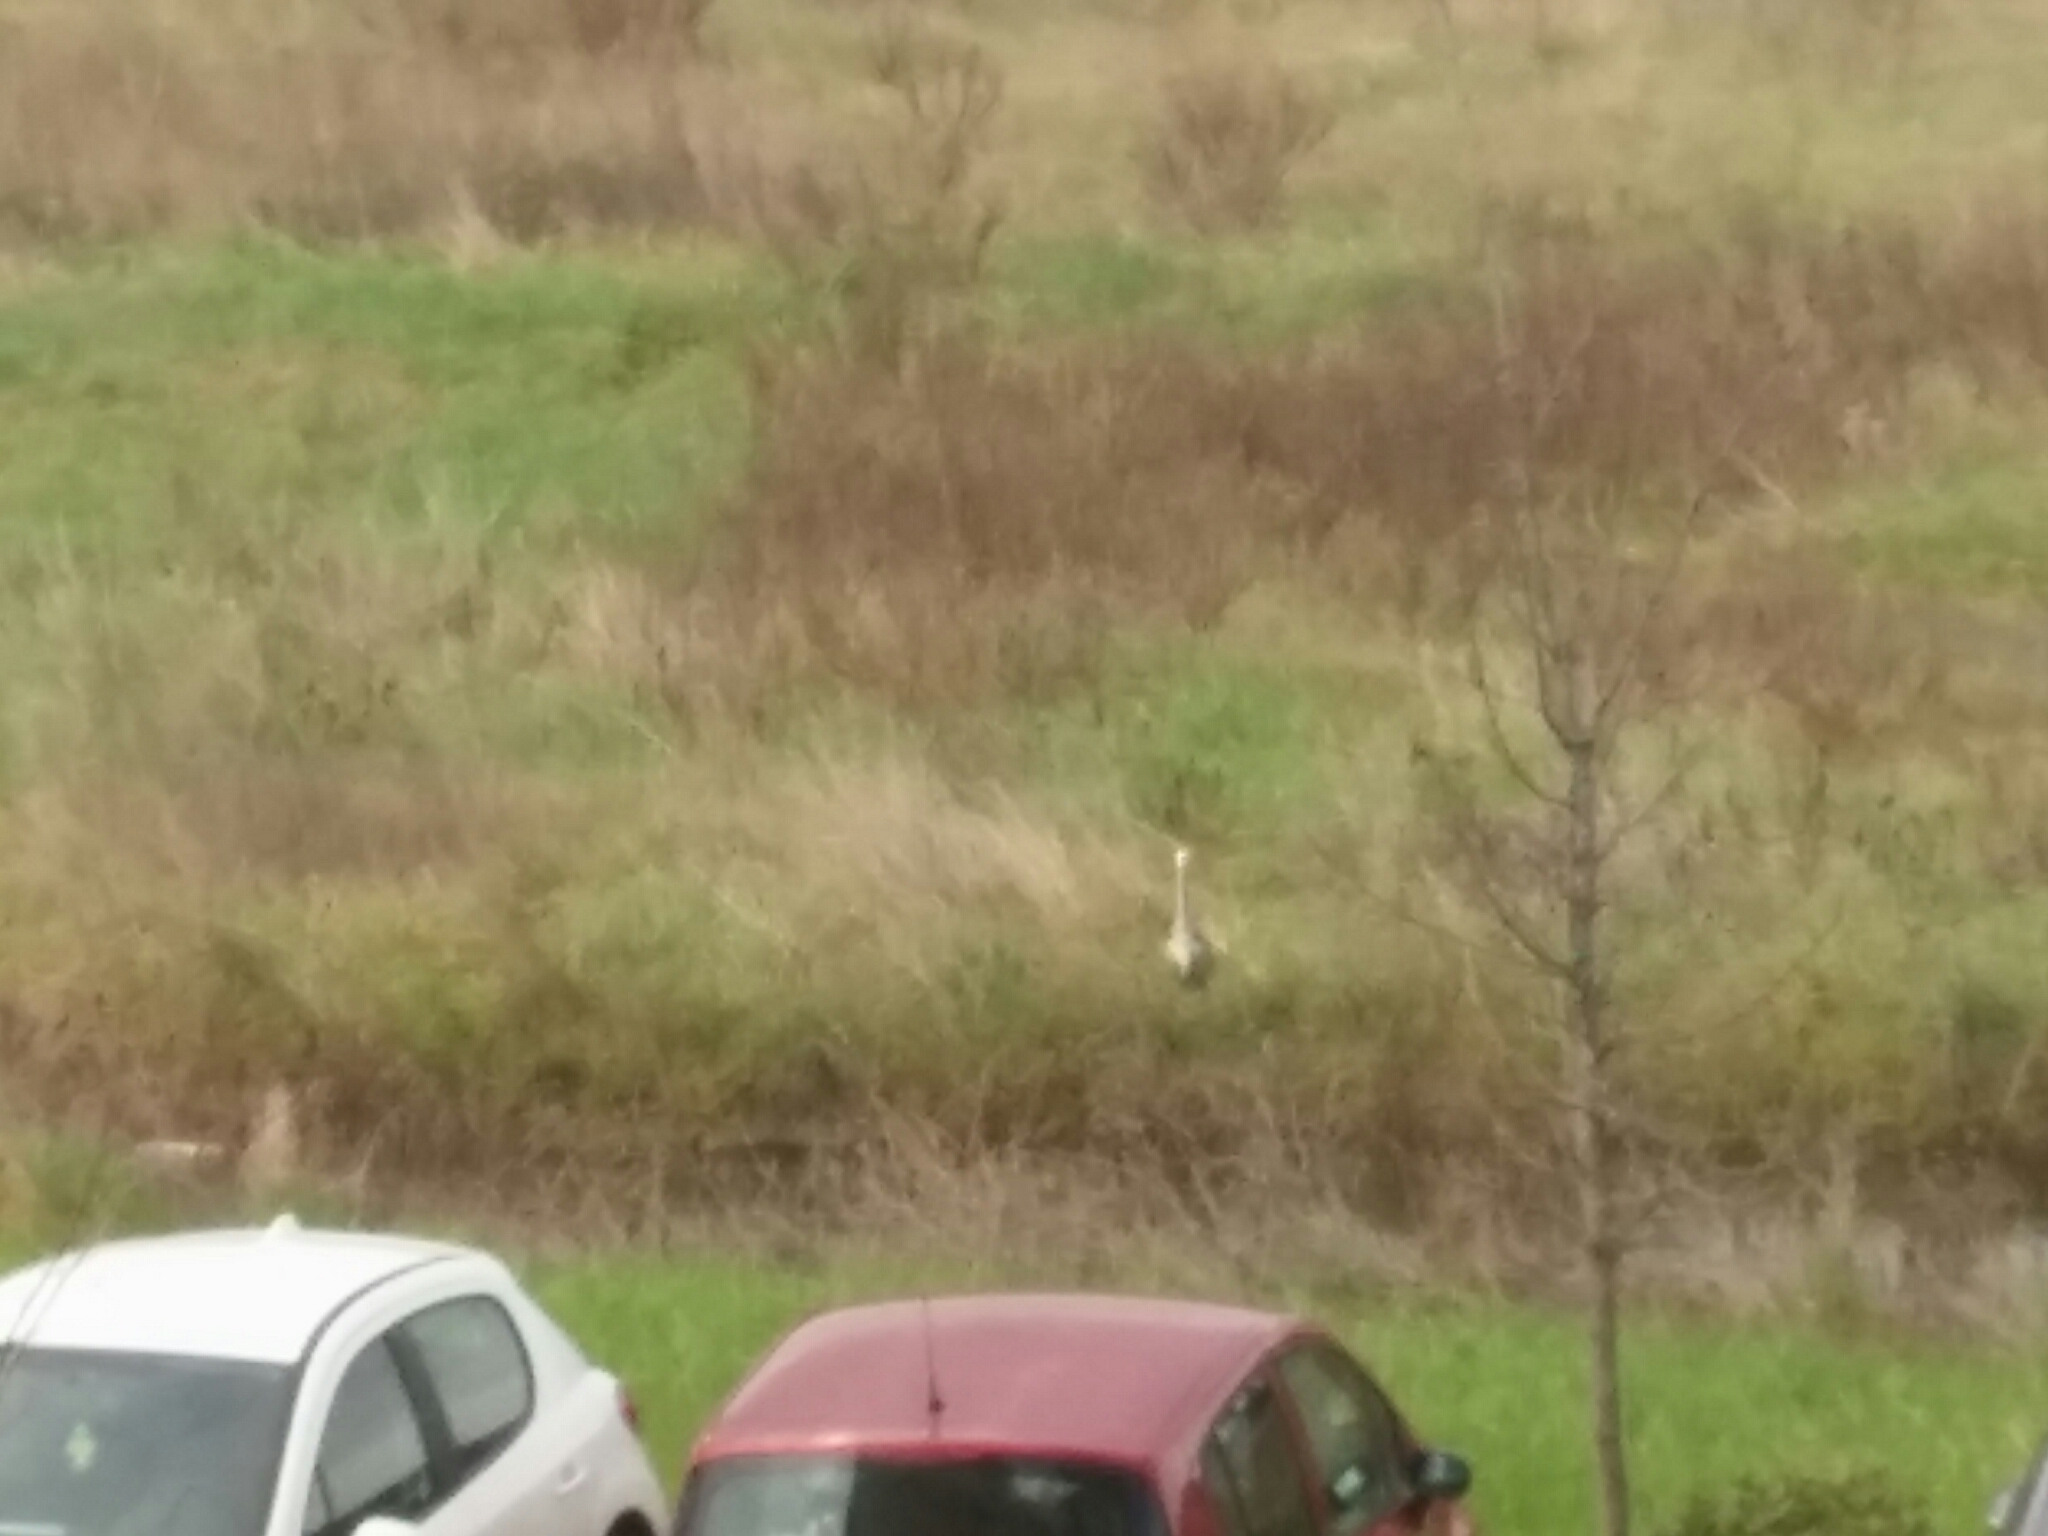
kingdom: Animalia
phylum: Chordata
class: Aves
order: Pelecaniformes
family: Ardeidae
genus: Ardea
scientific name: Ardea cinerea
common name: Grey heron
